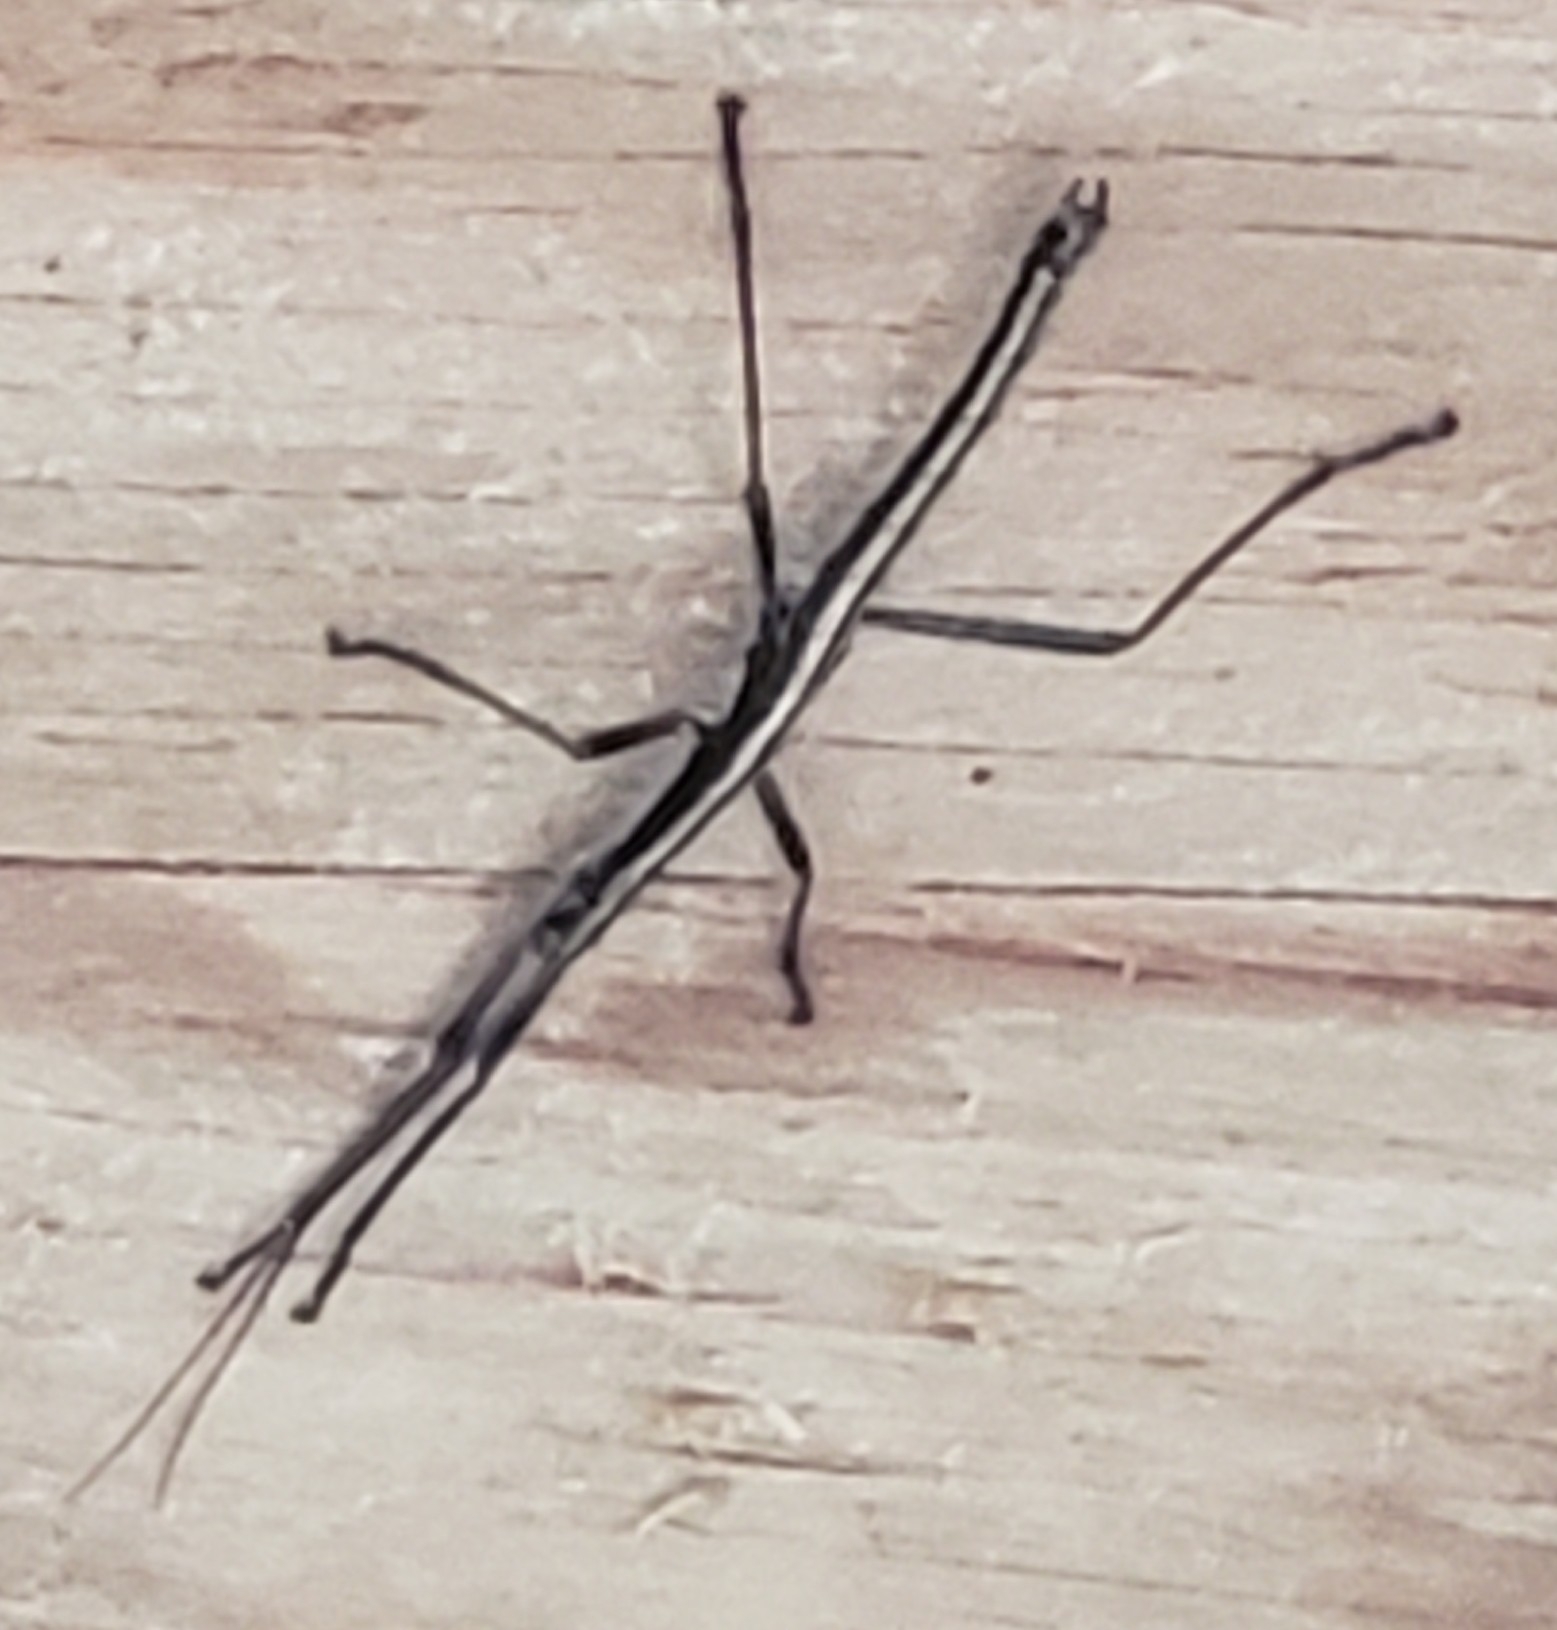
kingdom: Animalia
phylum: Arthropoda
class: Insecta
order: Phasmida
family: Pseudophasmatidae
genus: Anisomorpha
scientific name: Anisomorpha buprestoides
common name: Florida stick insect
